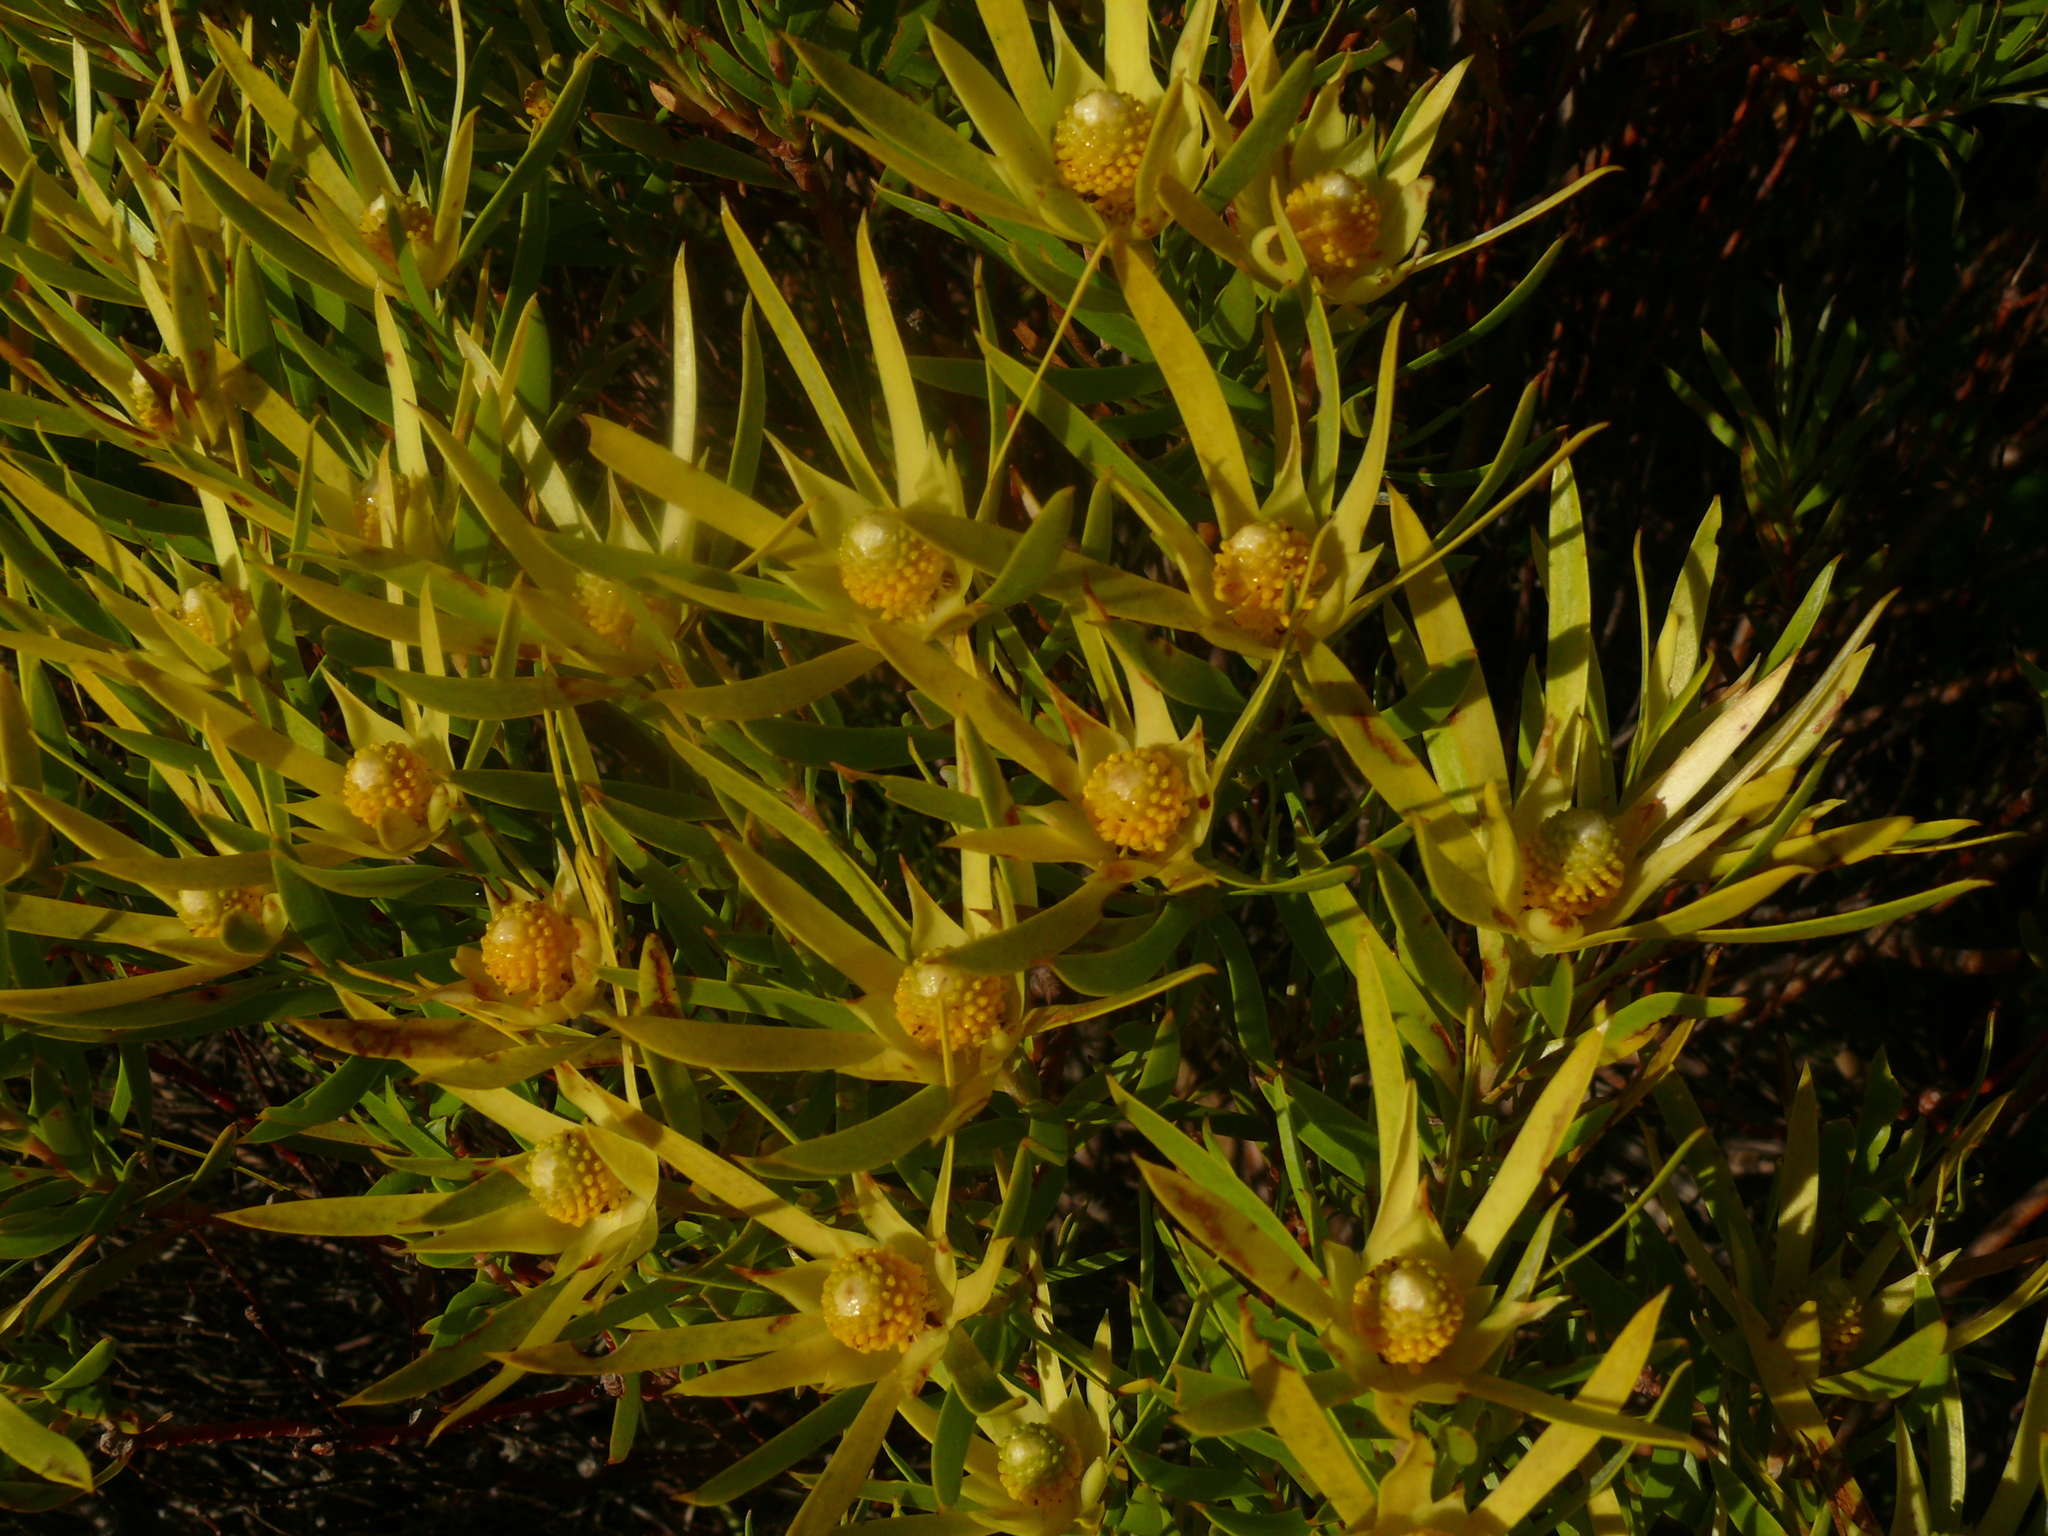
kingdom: Plantae
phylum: Tracheophyta
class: Magnoliopsida
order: Proteales
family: Proteaceae
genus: Leucadendron
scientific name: Leucadendron xanthoconus
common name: Sickle-leaf conebush
